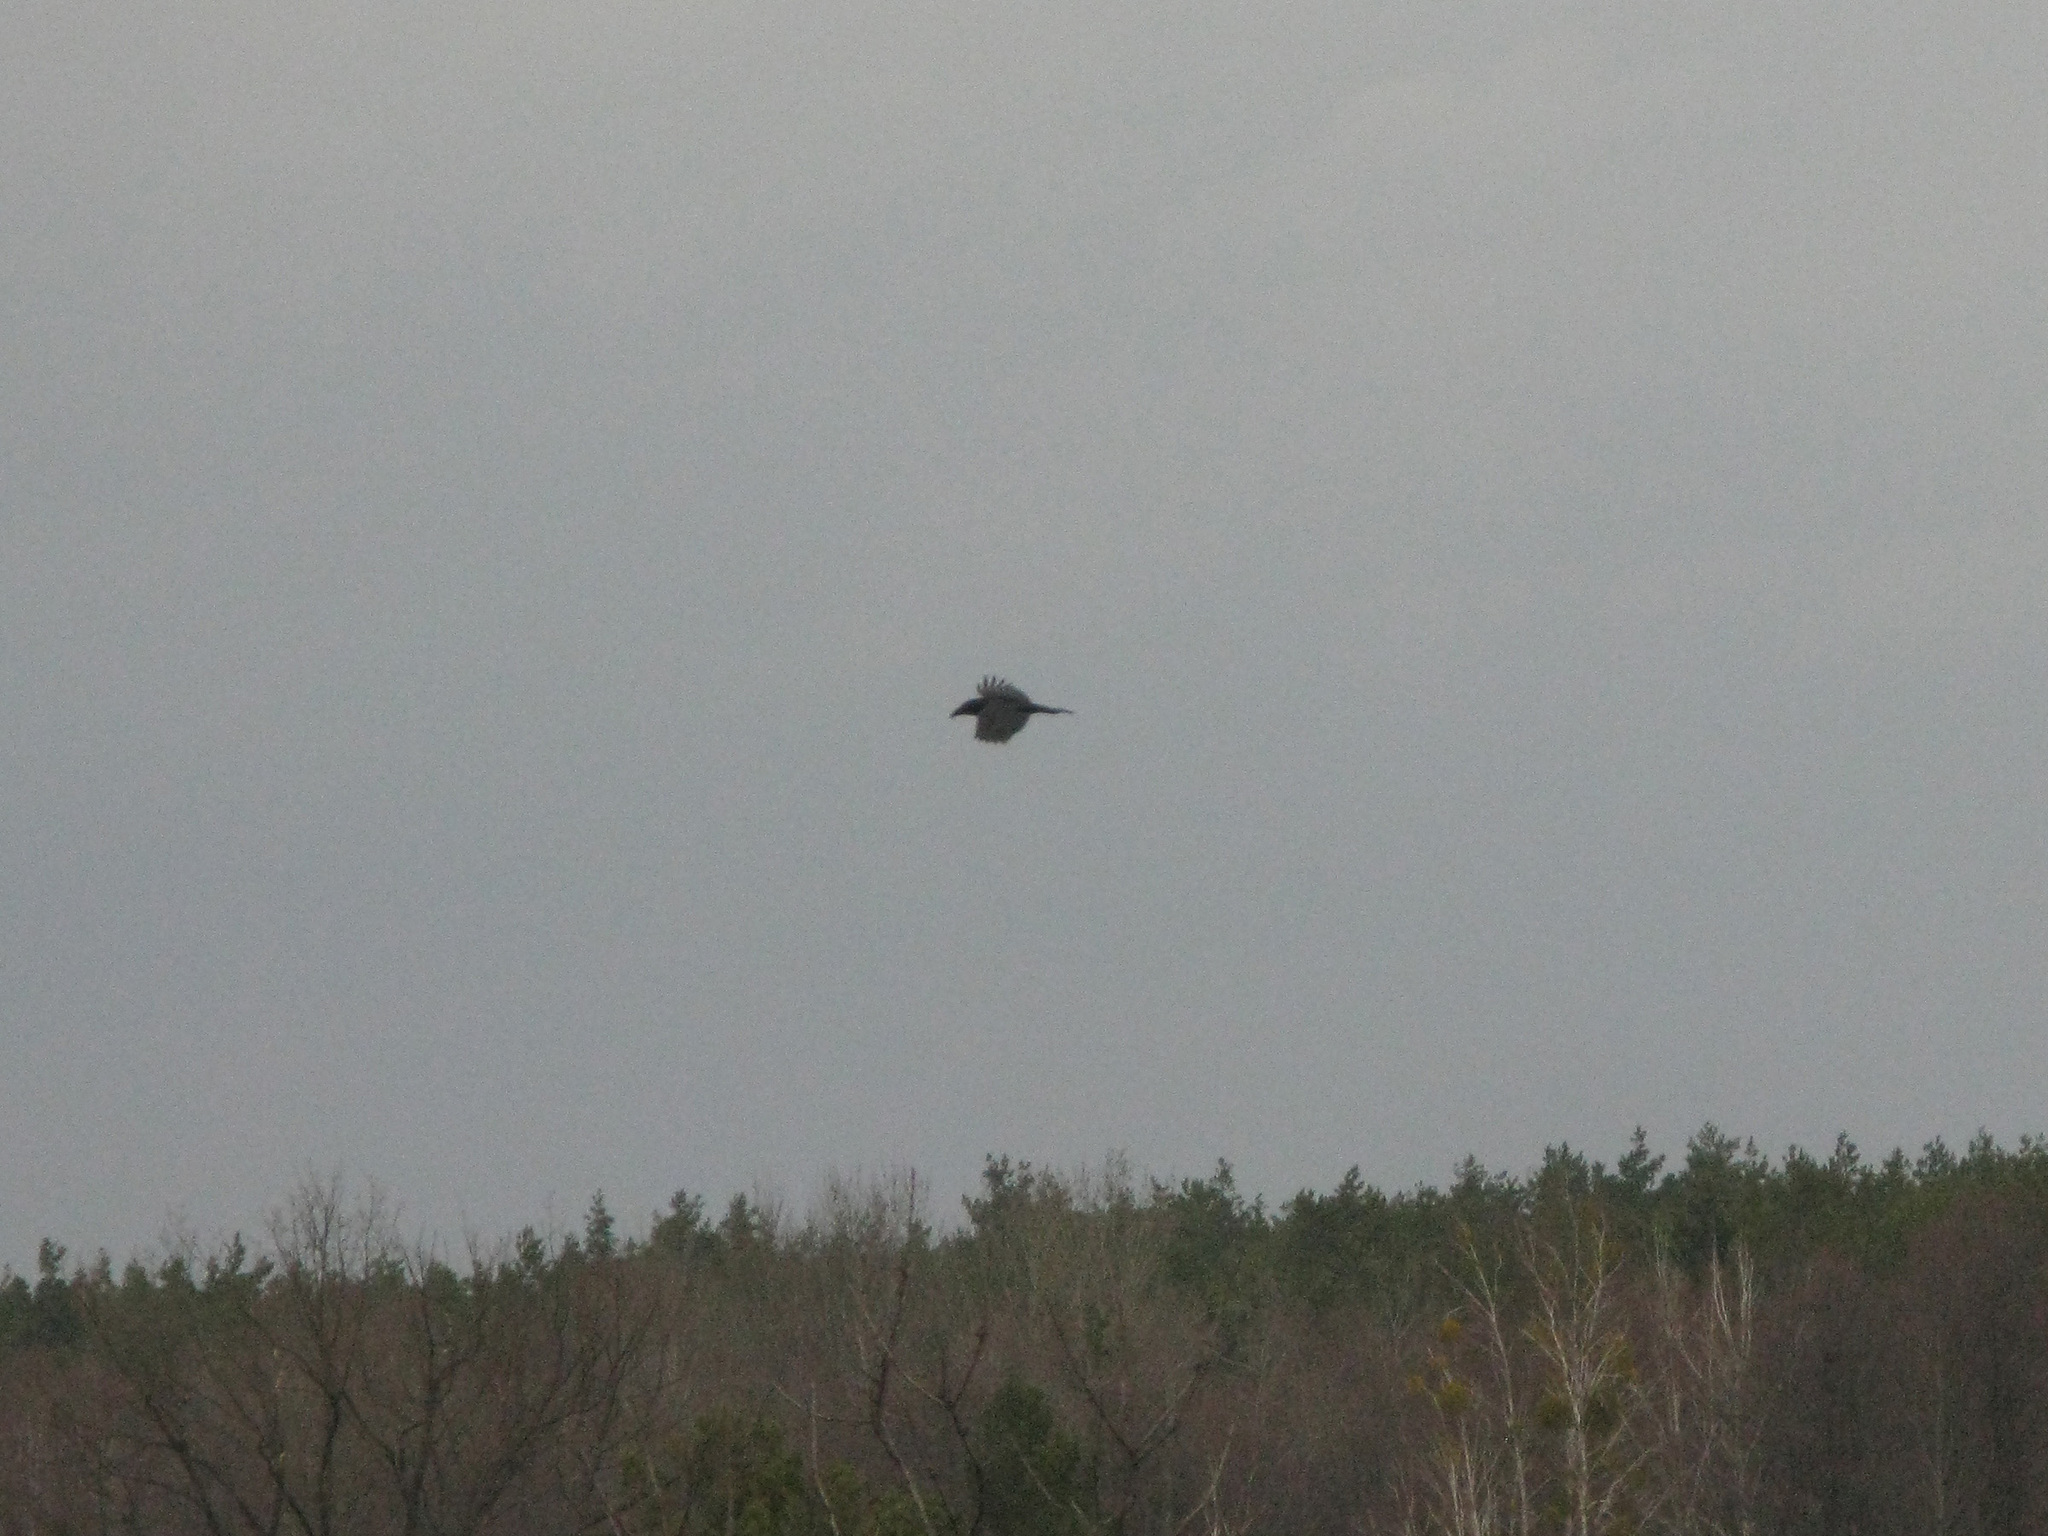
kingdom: Animalia
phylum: Chordata
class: Aves
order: Passeriformes
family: Corvidae
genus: Corvus
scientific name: Corvus corax
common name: Common raven
